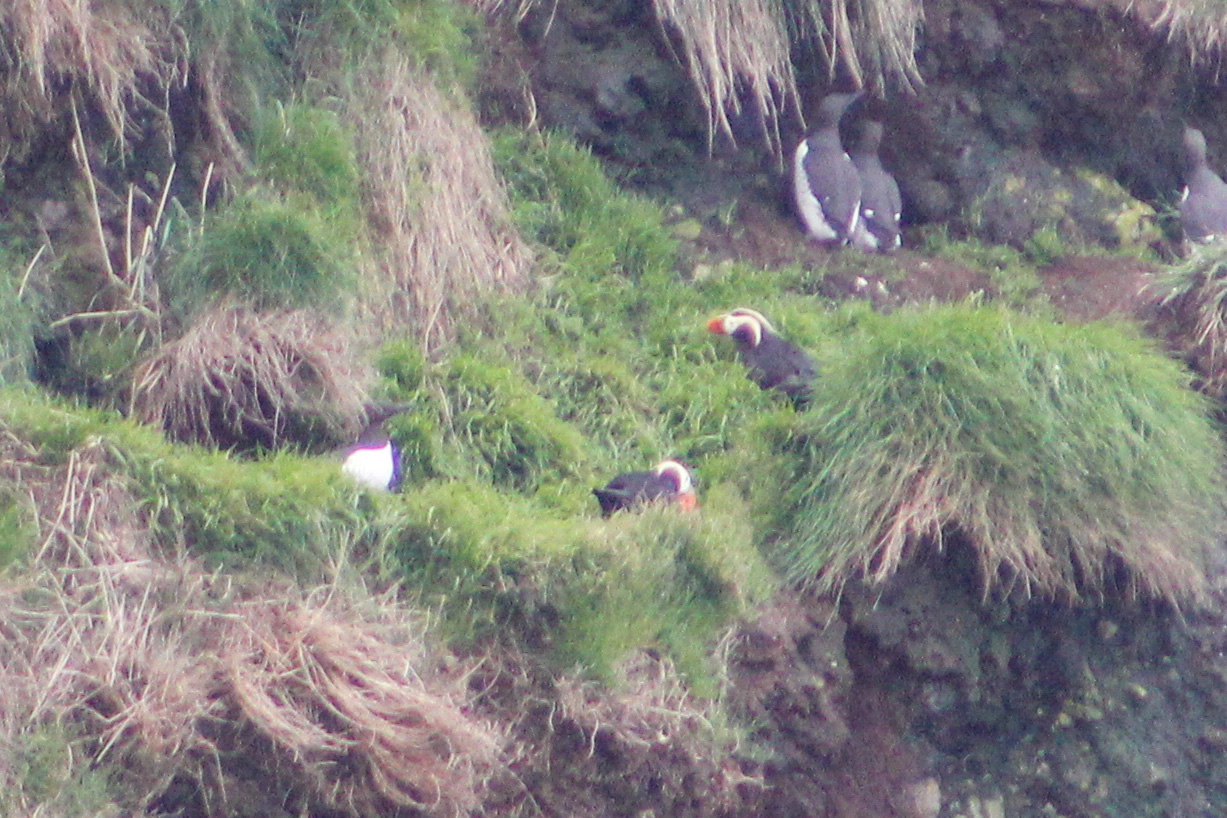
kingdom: Animalia
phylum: Chordata
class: Aves
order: Charadriiformes
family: Alcidae
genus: Fratercula
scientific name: Fratercula cirrhata
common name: Tufted puffin
